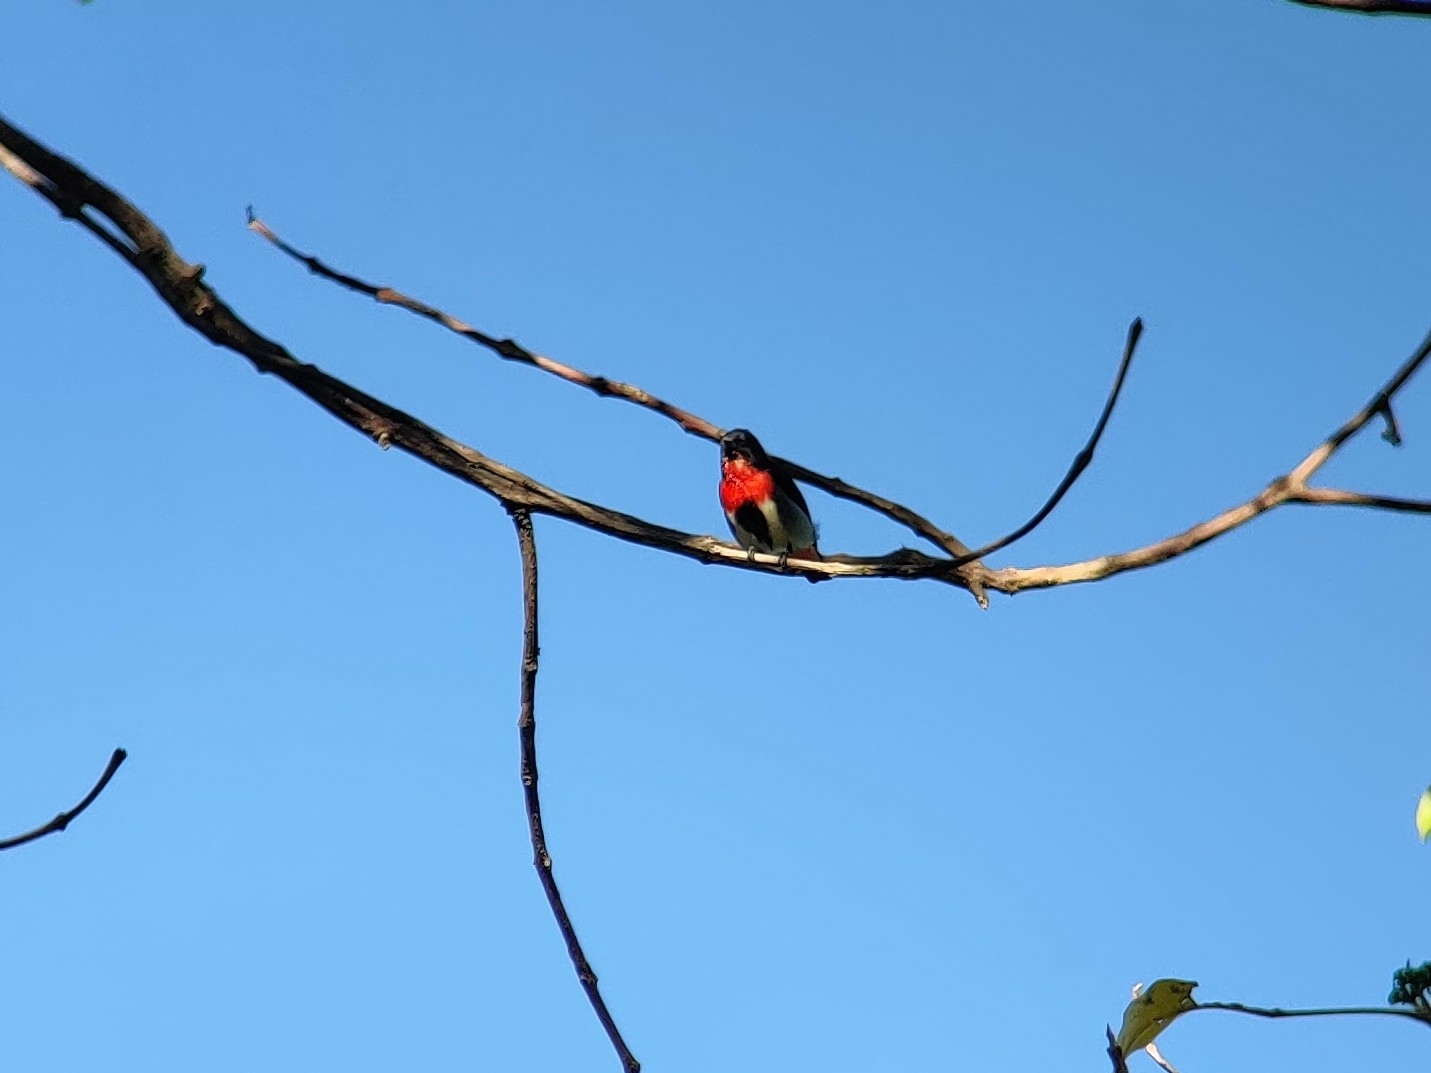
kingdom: Animalia
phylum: Chordata
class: Aves
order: Passeriformes
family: Dicaeidae
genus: Dicaeum
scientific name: Dicaeum hirundinaceum
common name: Mistletoebird
